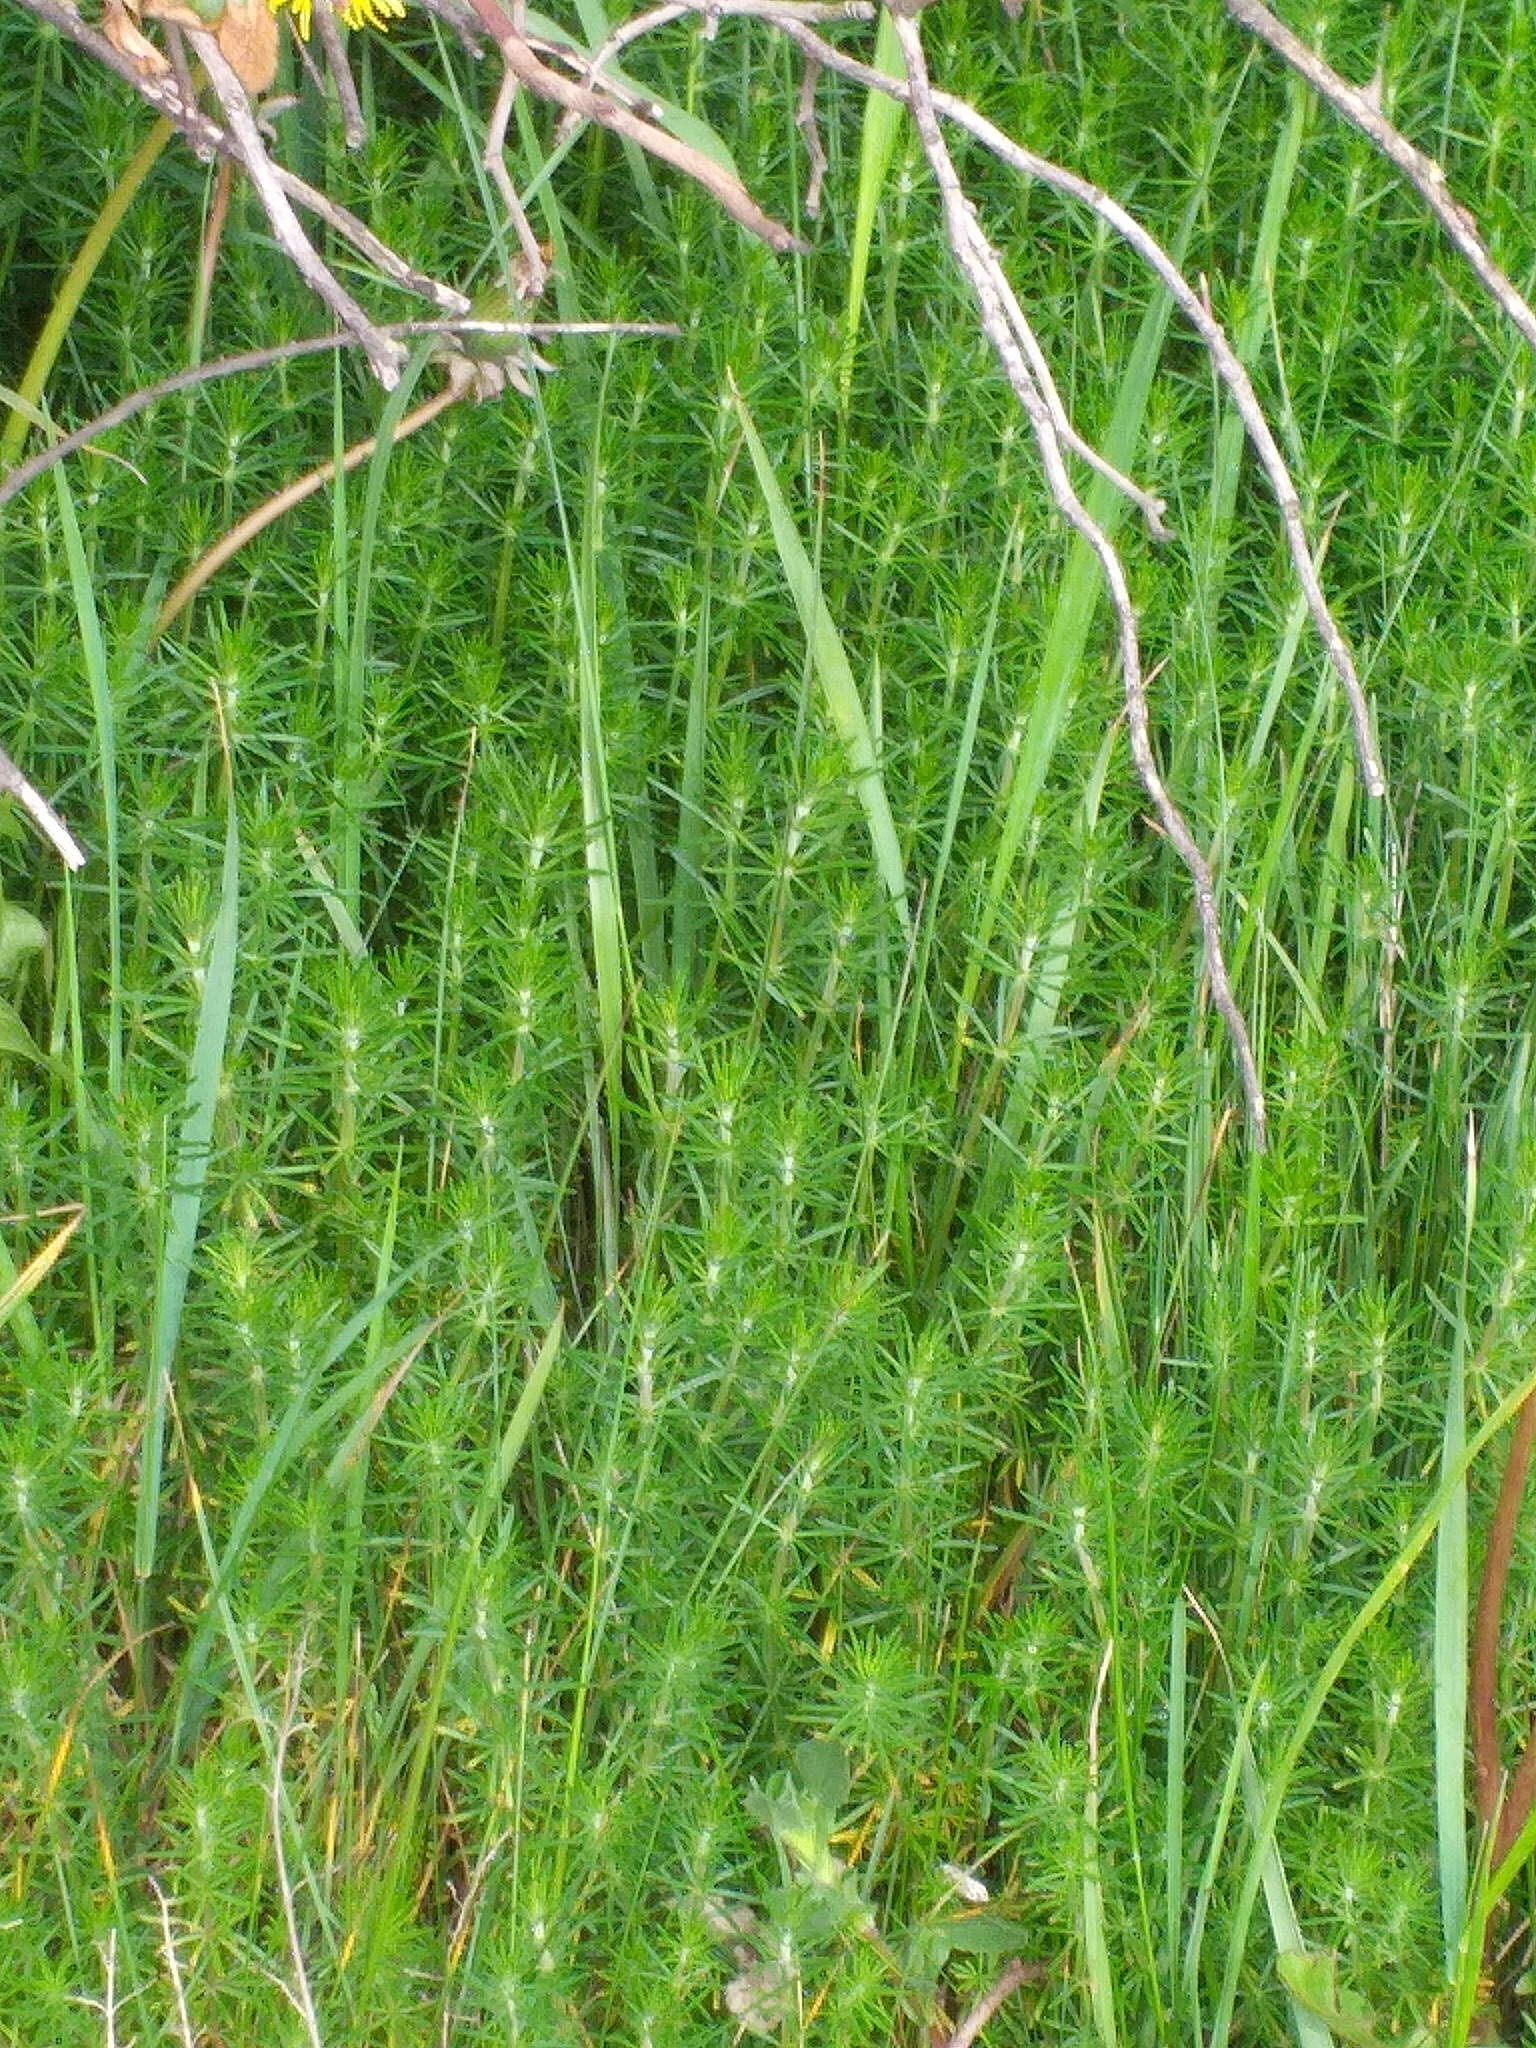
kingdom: Plantae
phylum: Tracheophyta
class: Magnoliopsida
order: Gentianales
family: Rubiaceae
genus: Galium
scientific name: Galium verum
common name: Lady's bedstraw
